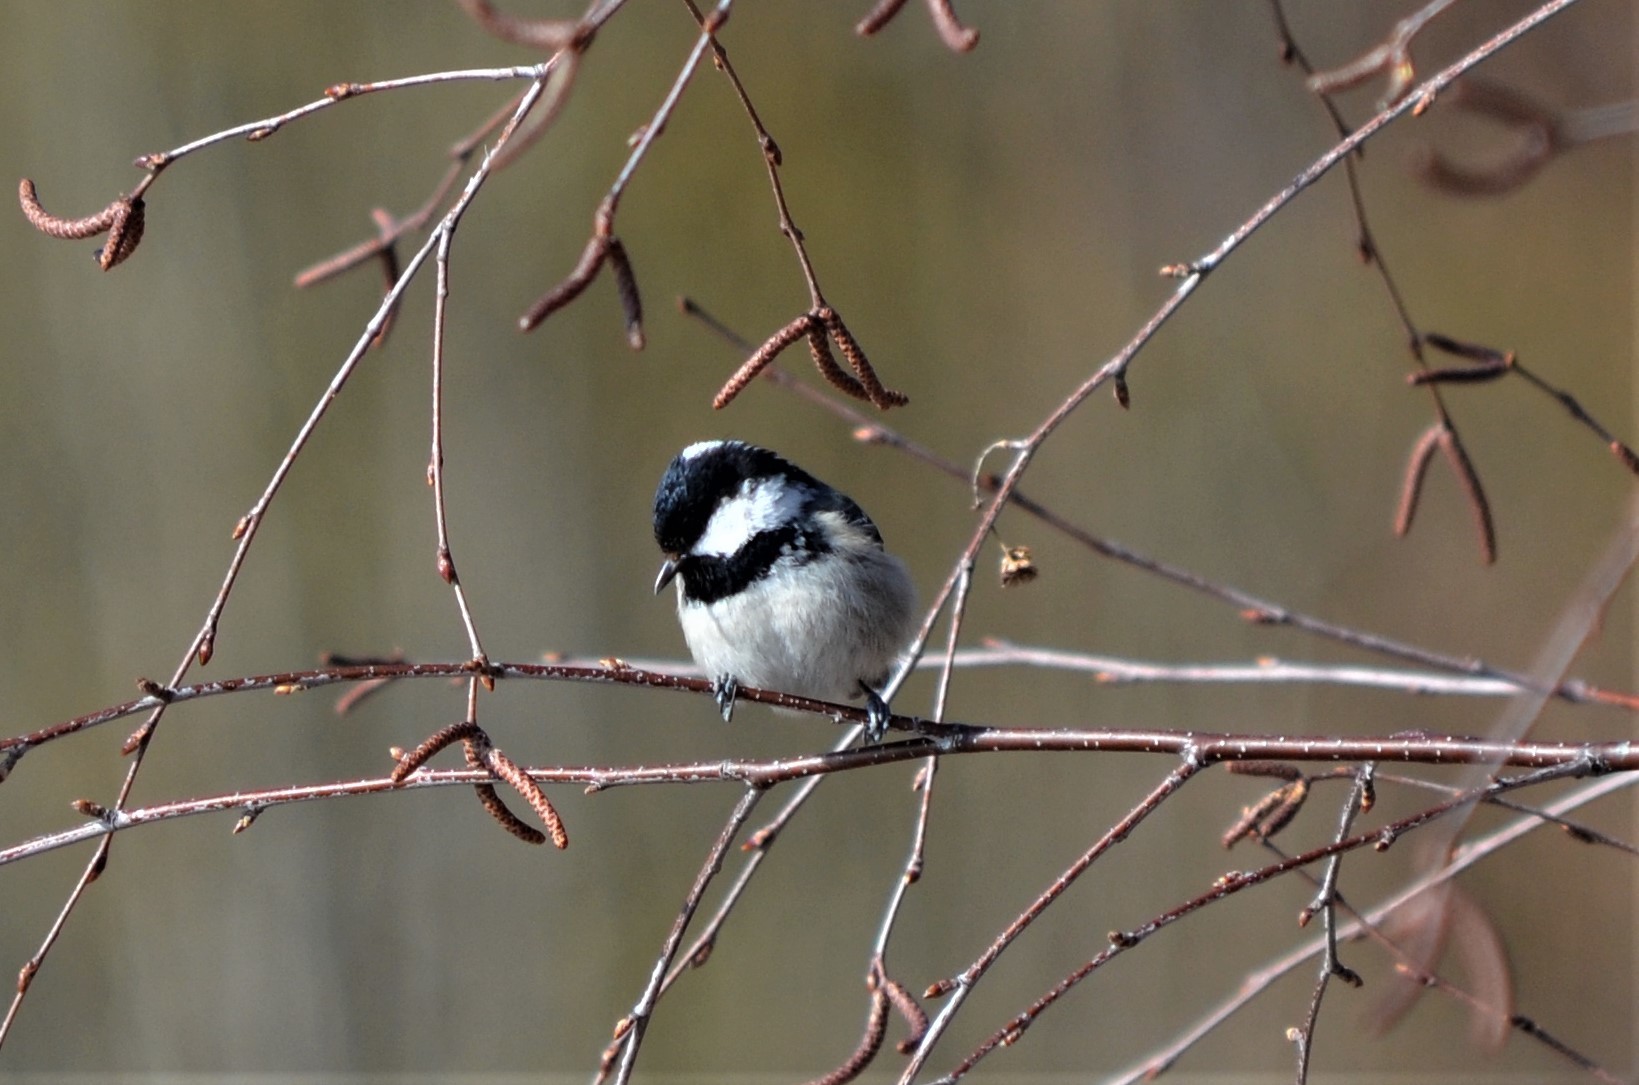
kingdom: Animalia
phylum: Chordata
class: Aves
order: Passeriformes
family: Paridae
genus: Periparus
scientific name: Periparus ater
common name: Coal tit
